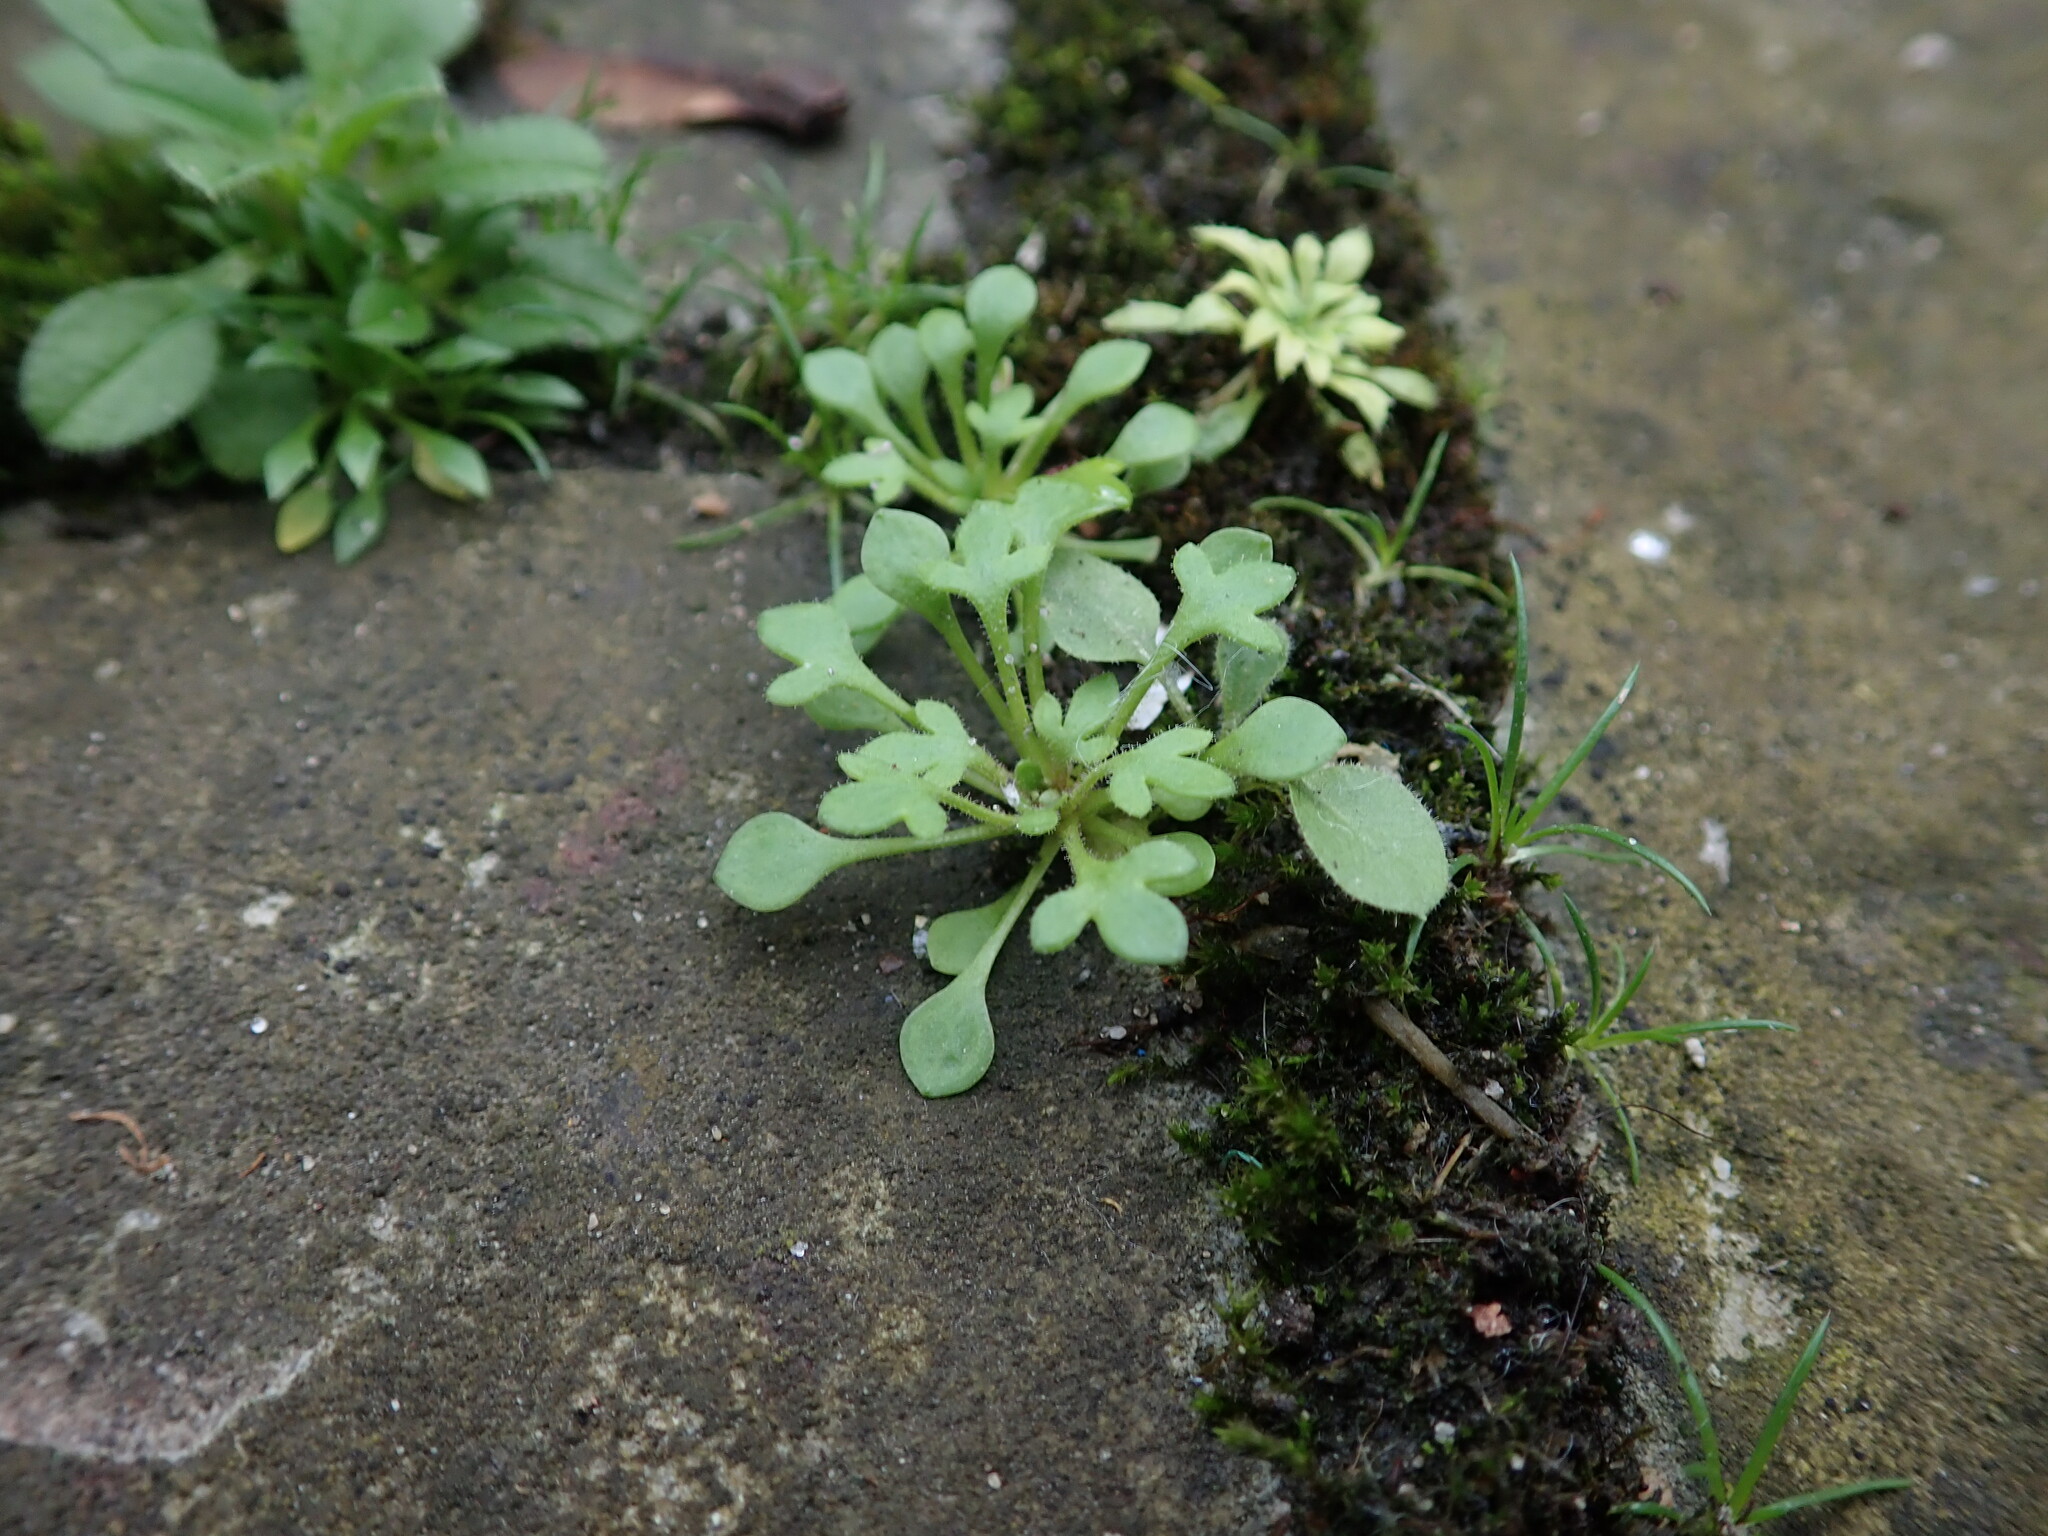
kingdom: Plantae
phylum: Tracheophyta
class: Magnoliopsida
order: Saxifragales
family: Saxifragaceae
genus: Saxifraga
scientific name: Saxifraga tridactylites
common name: Rue-leaved saxifrage
